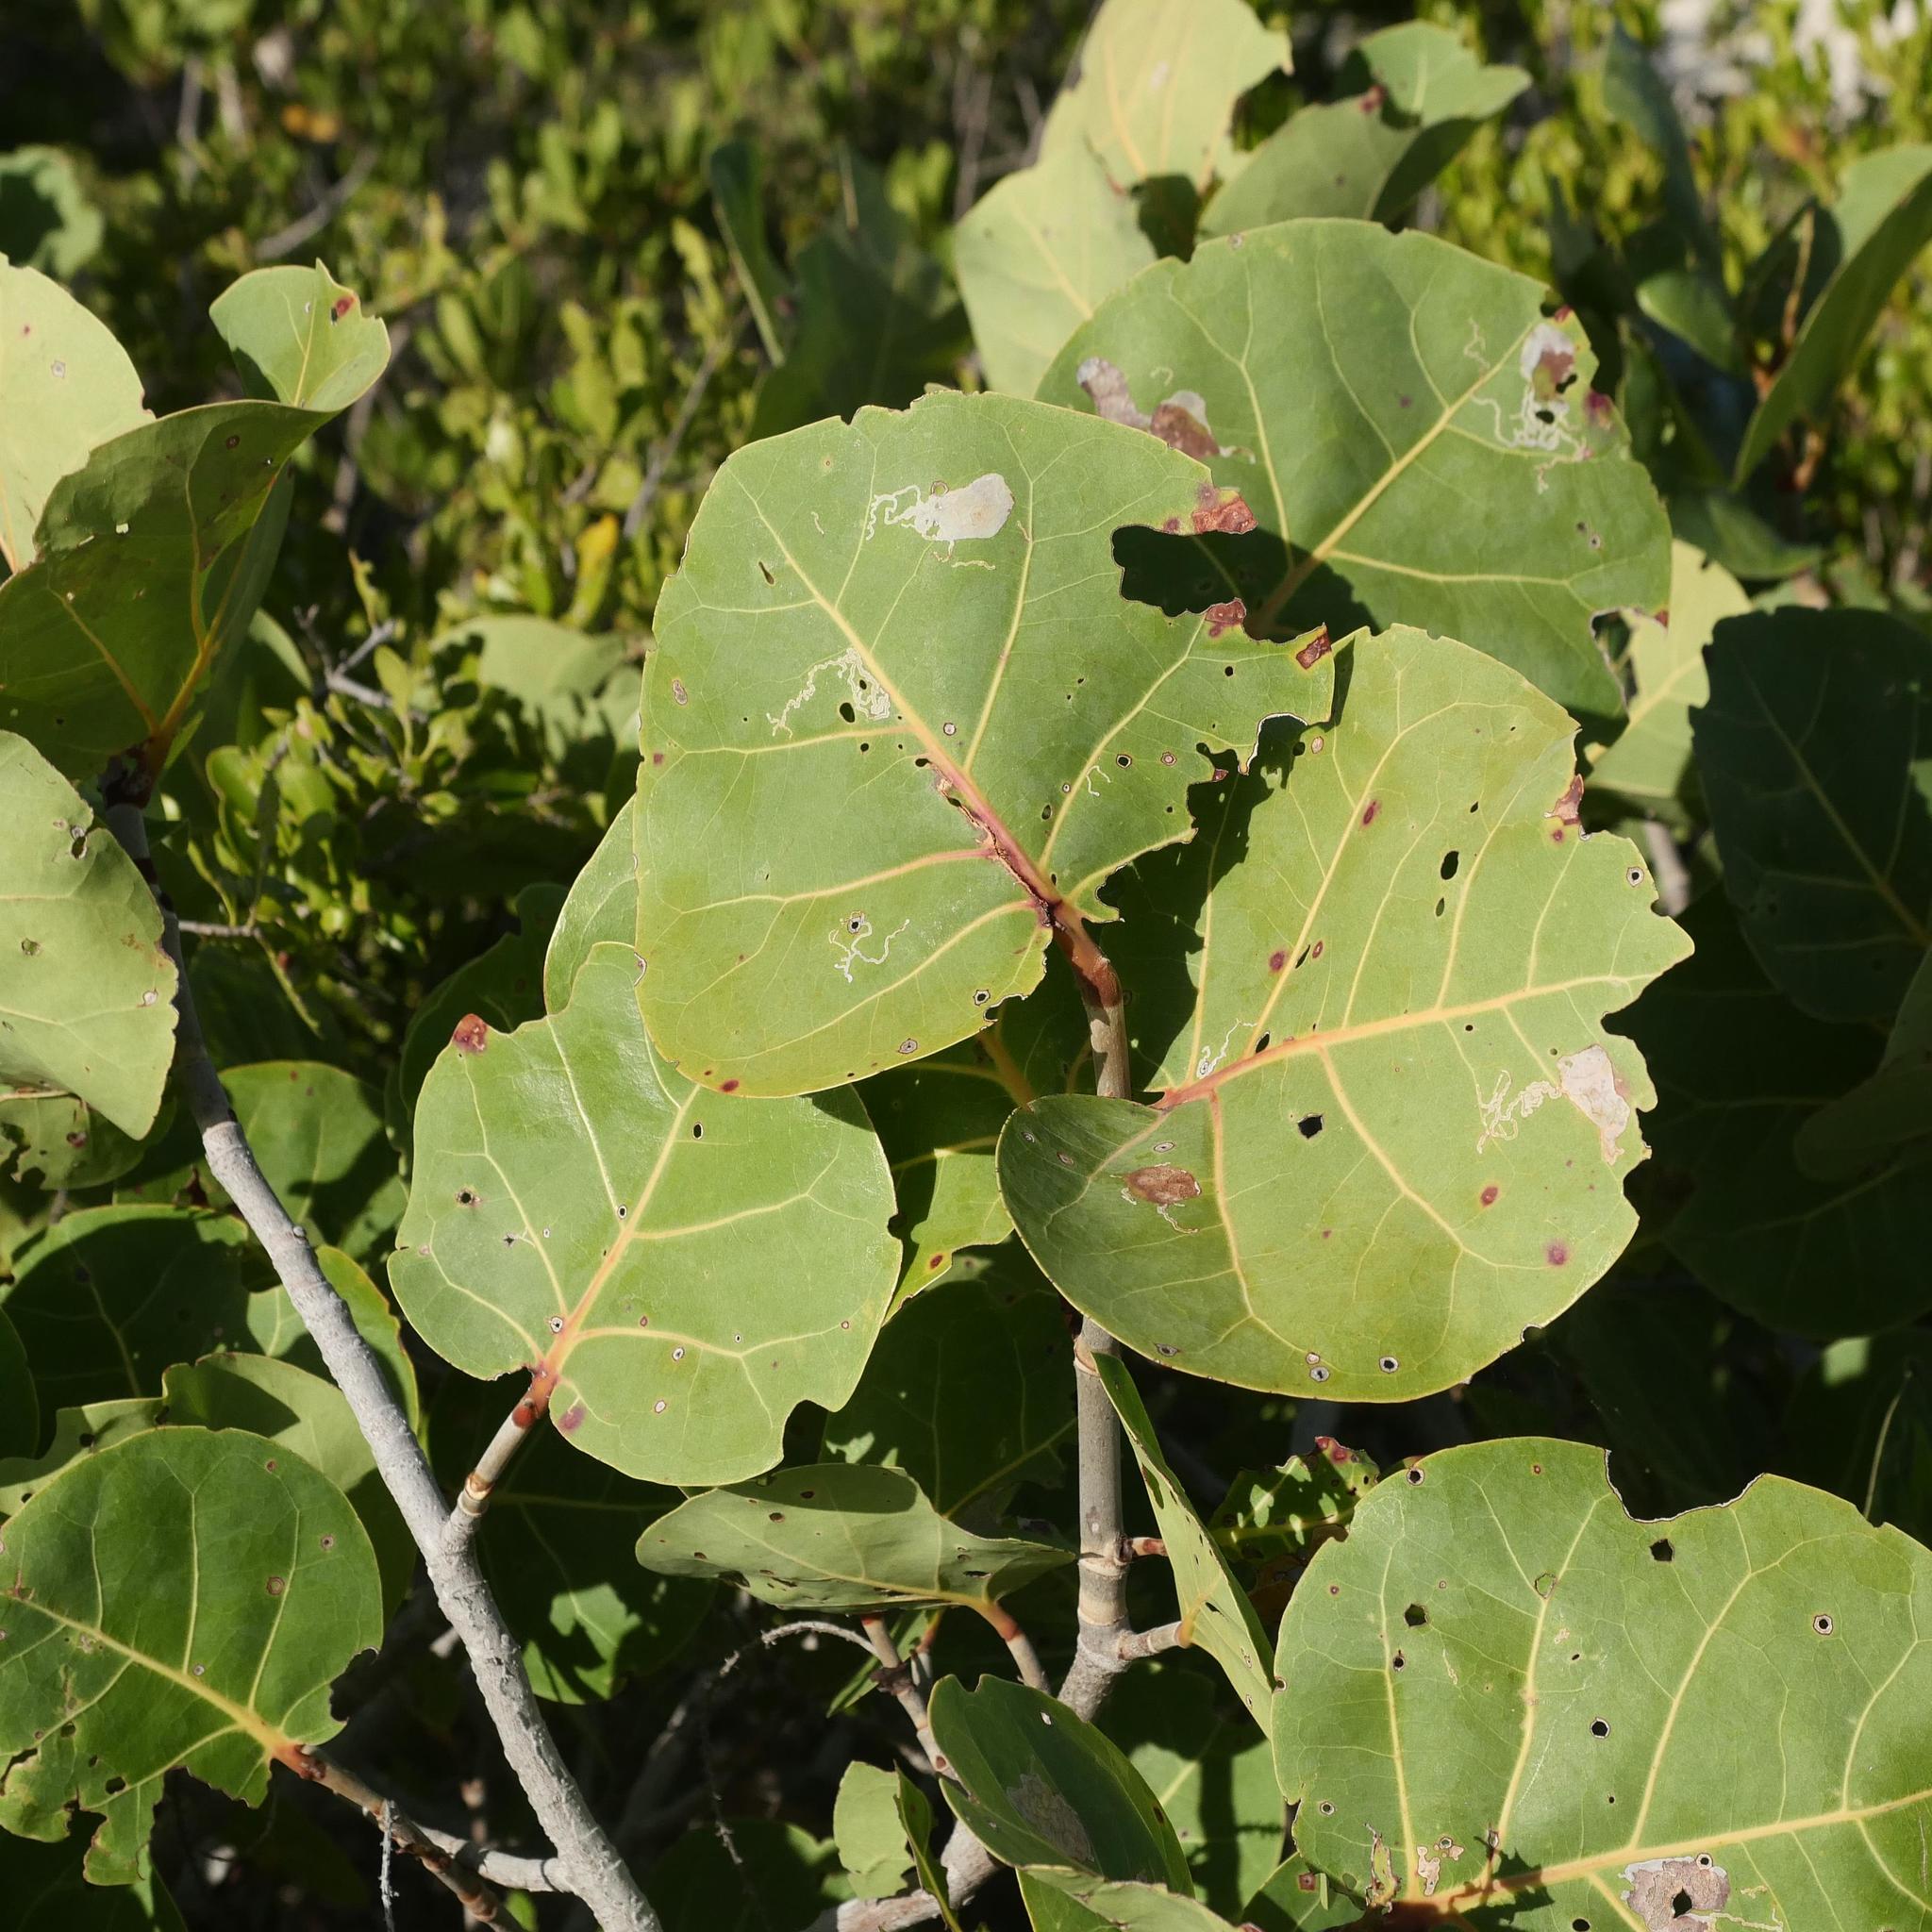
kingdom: Plantae
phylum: Tracheophyta
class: Magnoliopsida
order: Caryophyllales
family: Polygonaceae
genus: Coccoloba
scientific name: Coccoloba uvifera
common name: Seagrape
